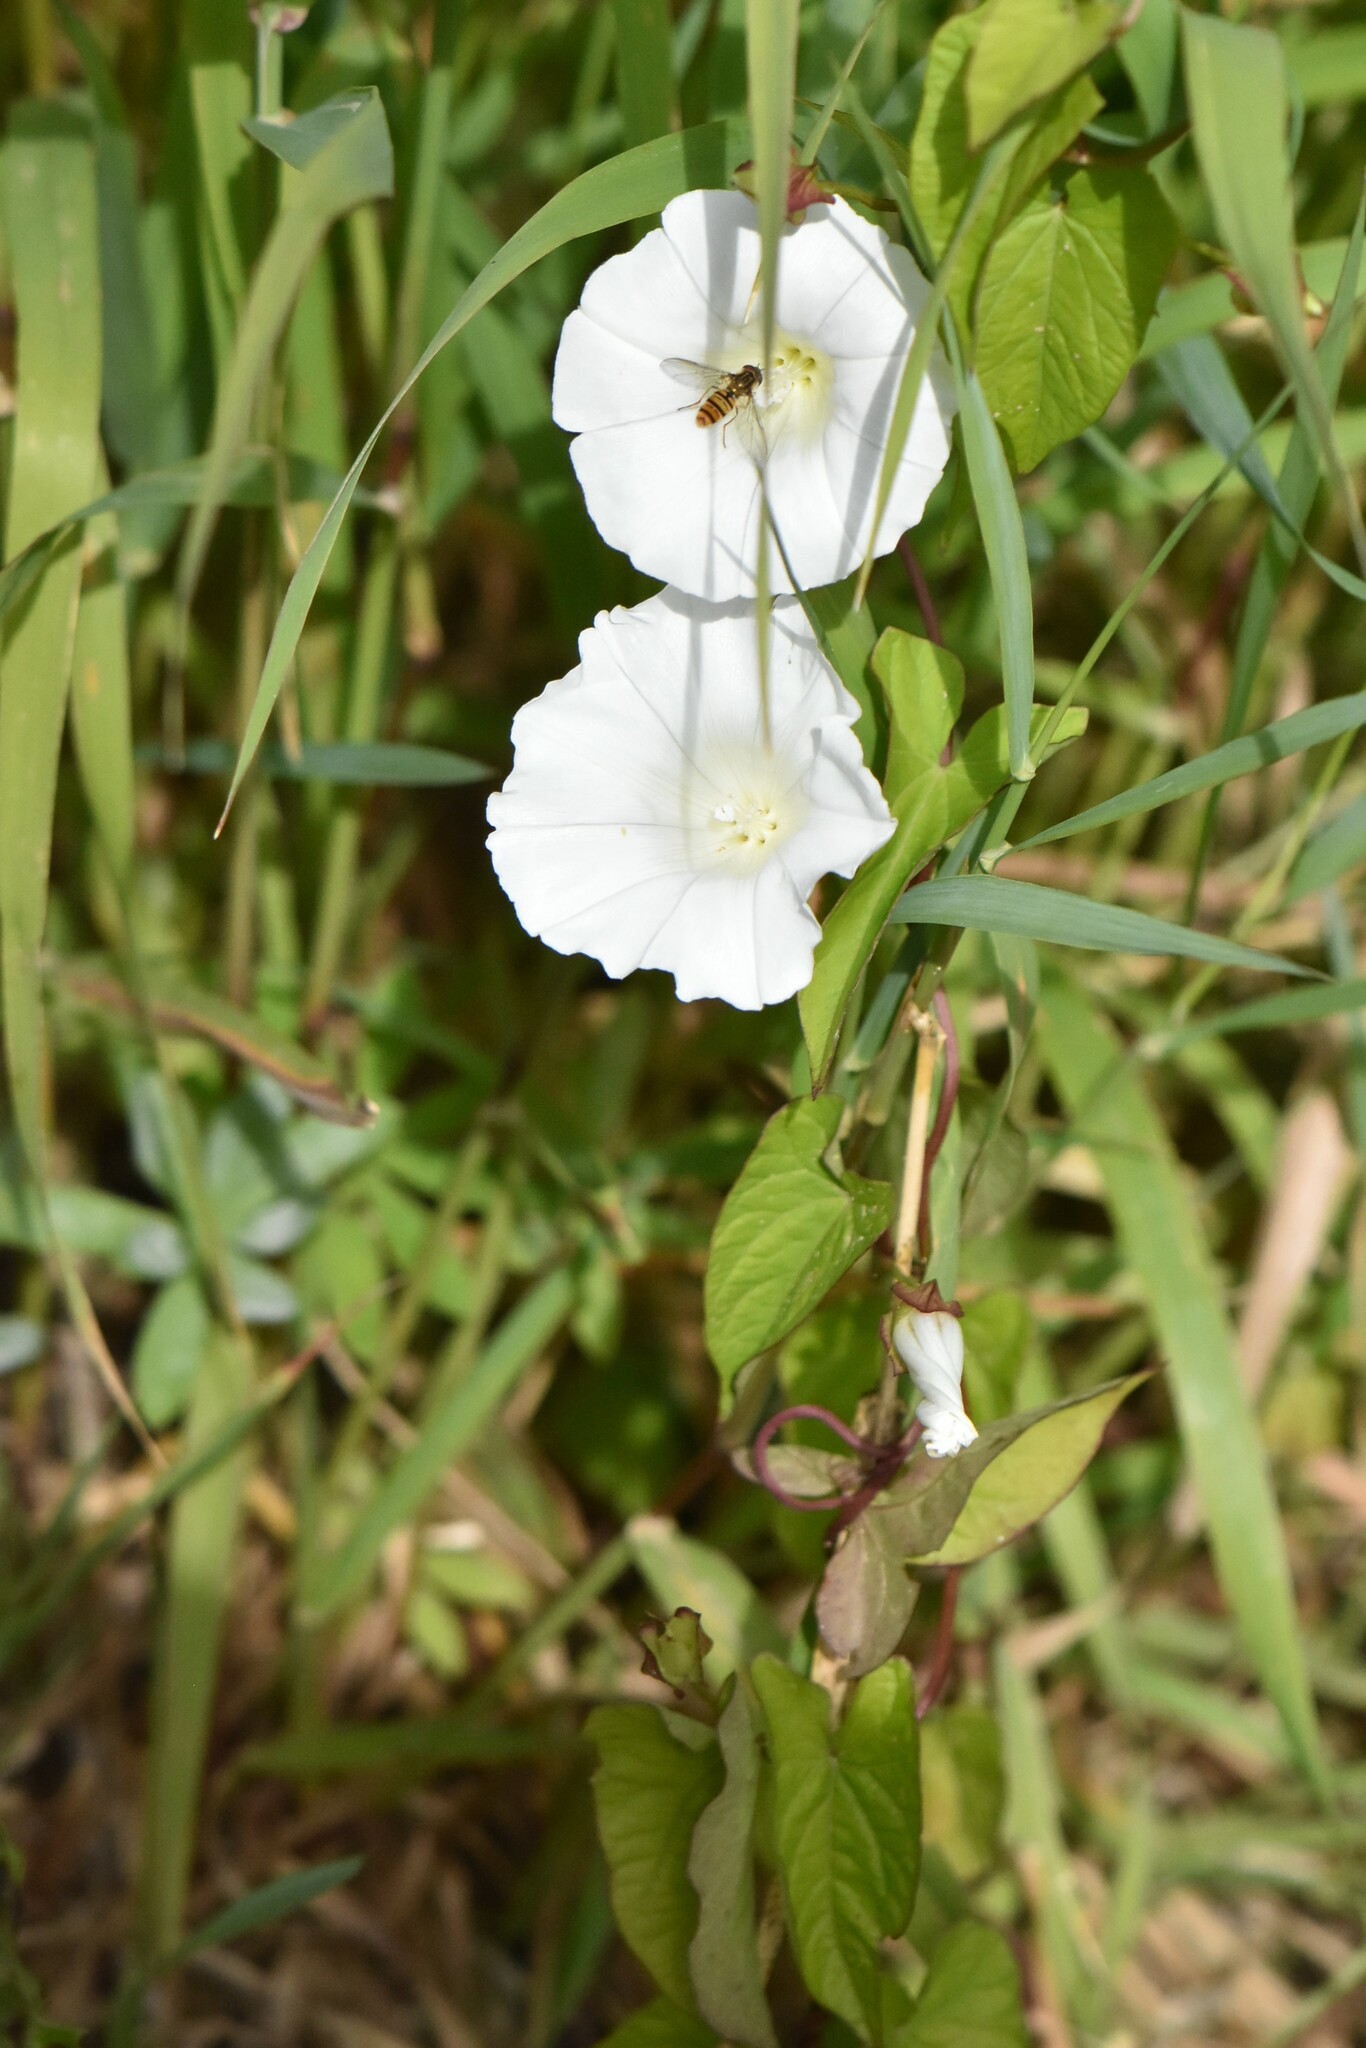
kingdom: Plantae
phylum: Tracheophyta
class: Magnoliopsida
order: Solanales
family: Convolvulaceae
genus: Calystegia
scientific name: Calystegia sepium
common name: Hedge bindweed
